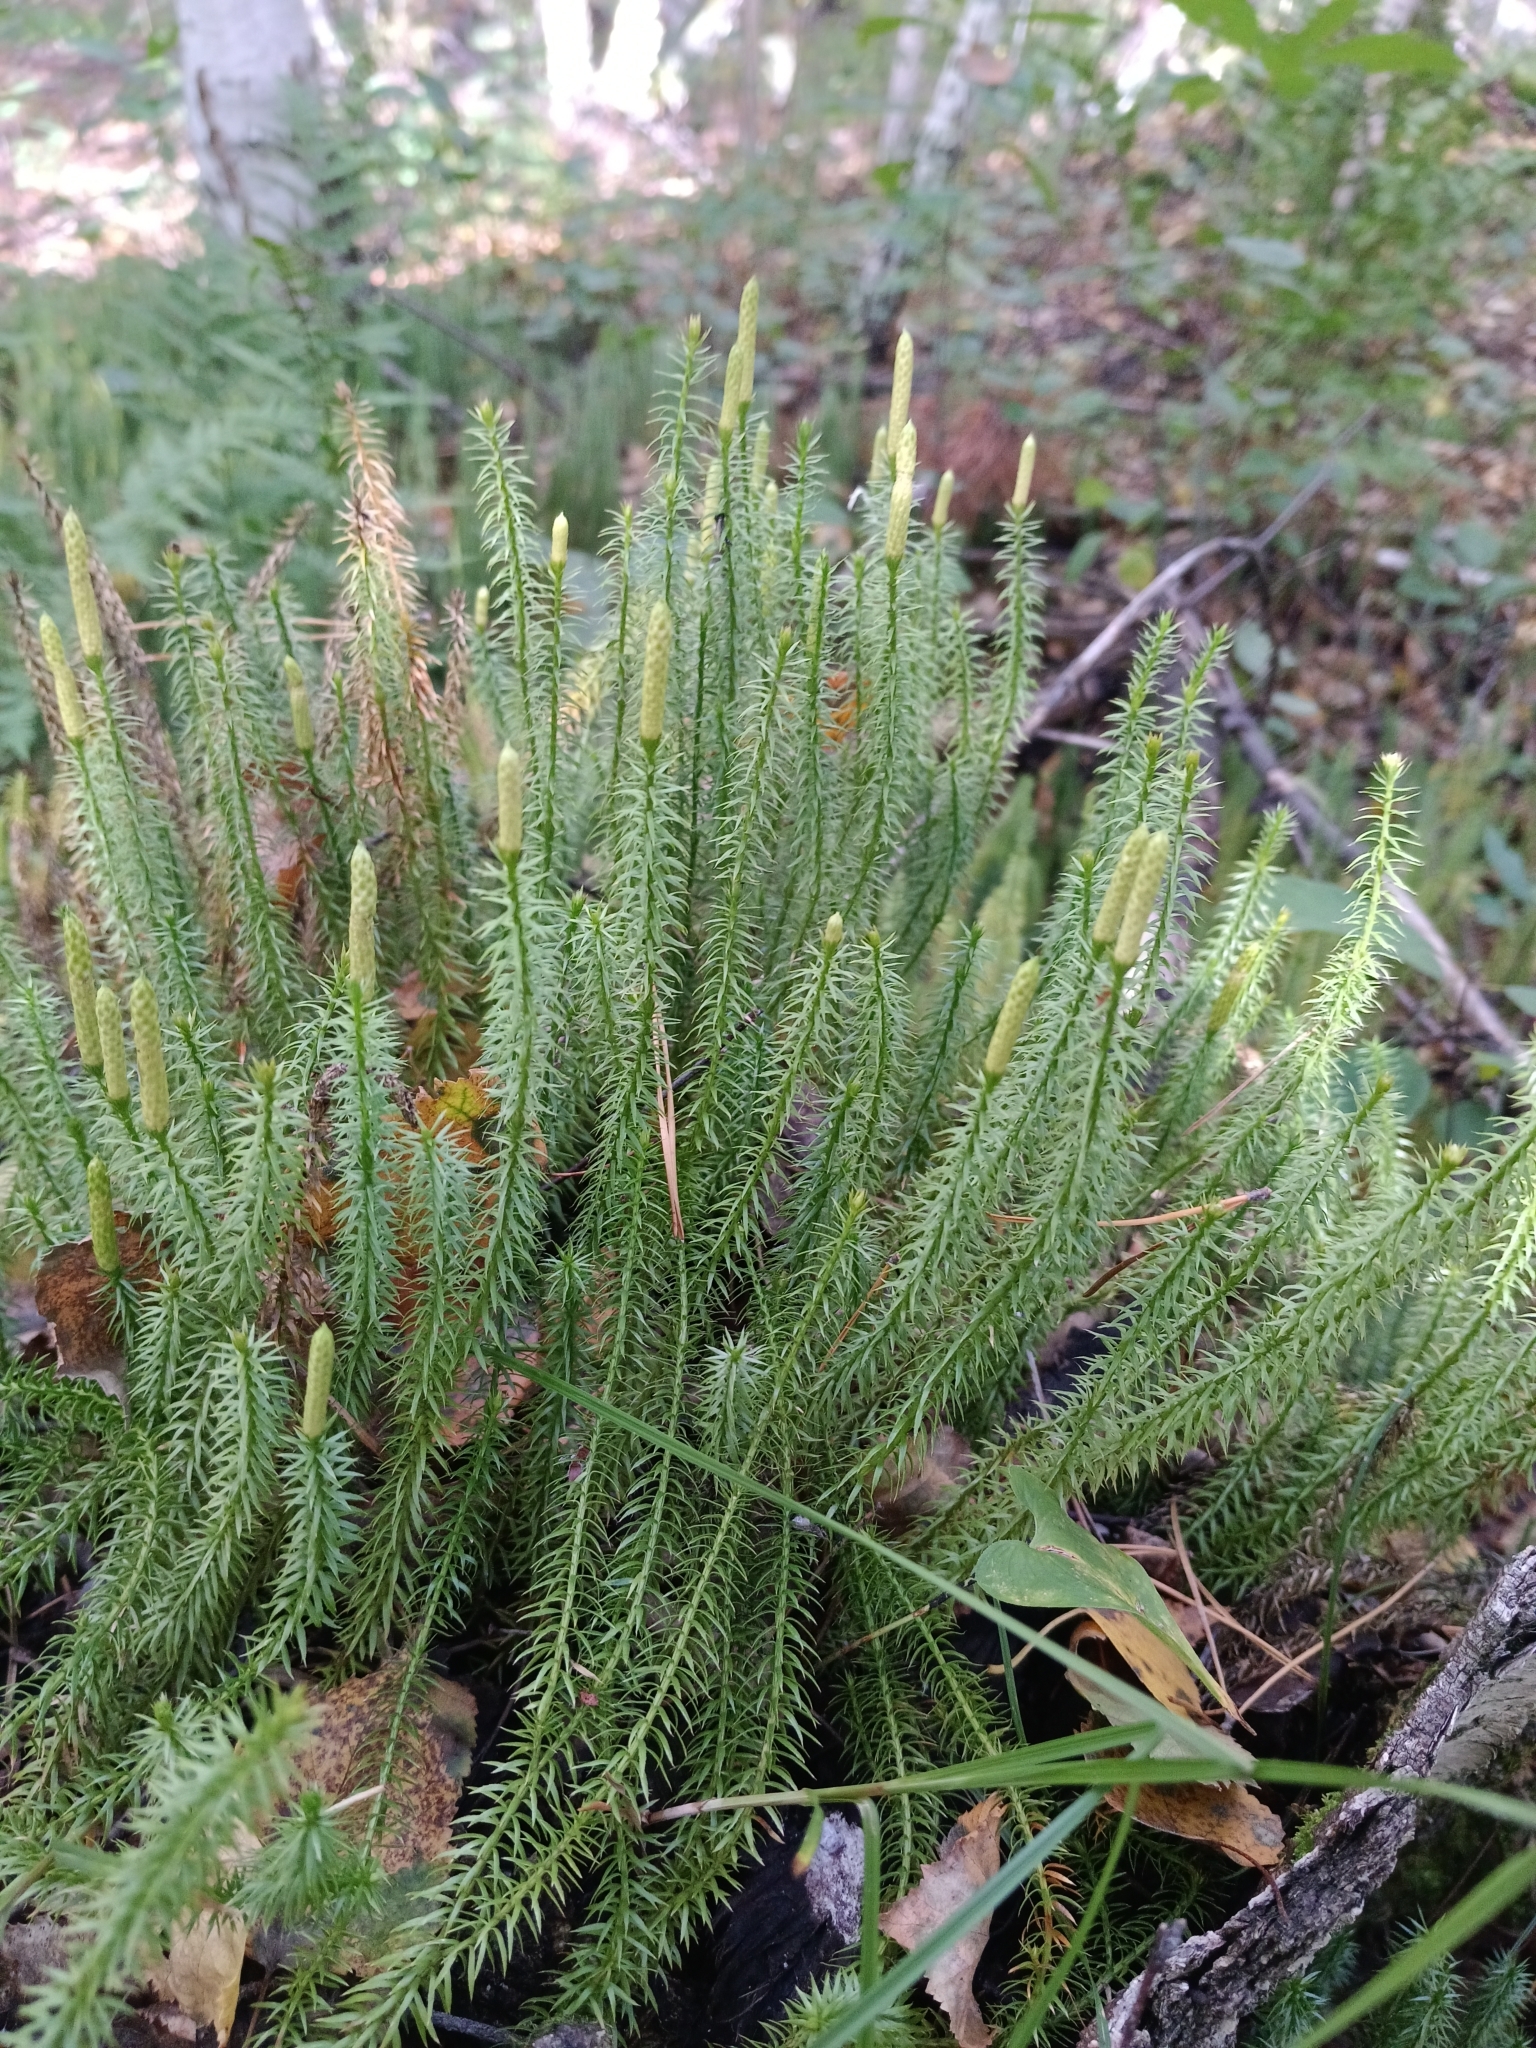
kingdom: Plantae
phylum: Tracheophyta
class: Lycopodiopsida
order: Lycopodiales
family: Lycopodiaceae
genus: Spinulum
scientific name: Spinulum annotinum
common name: Interrupted club-moss
